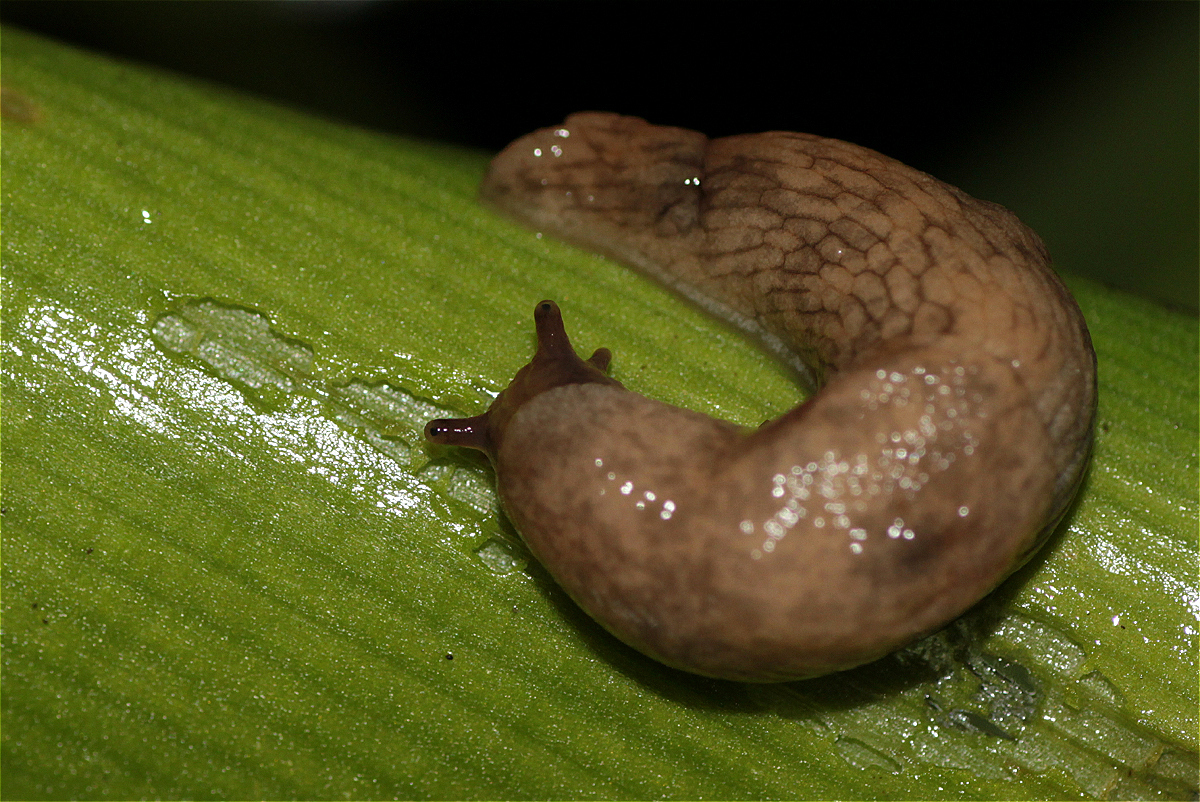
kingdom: Animalia
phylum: Mollusca
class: Gastropoda
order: Stylommatophora
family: Agriolimacidae
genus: Deroceras
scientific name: Deroceras reticulatum
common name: Gray field slug
